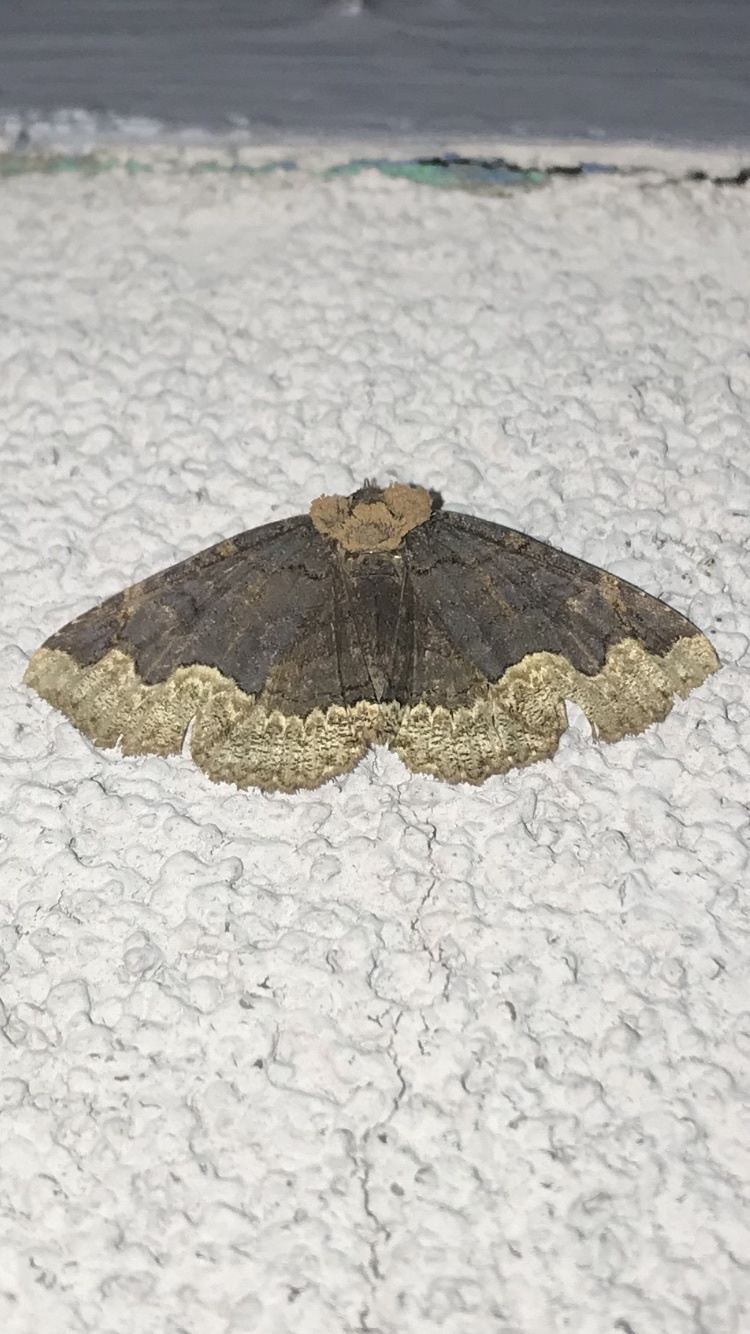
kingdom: Animalia
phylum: Arthropoda
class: Insecta
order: Lepidoptera
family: Erebidae
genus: Zale
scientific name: Zale horrida
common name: Horrid zale moth
